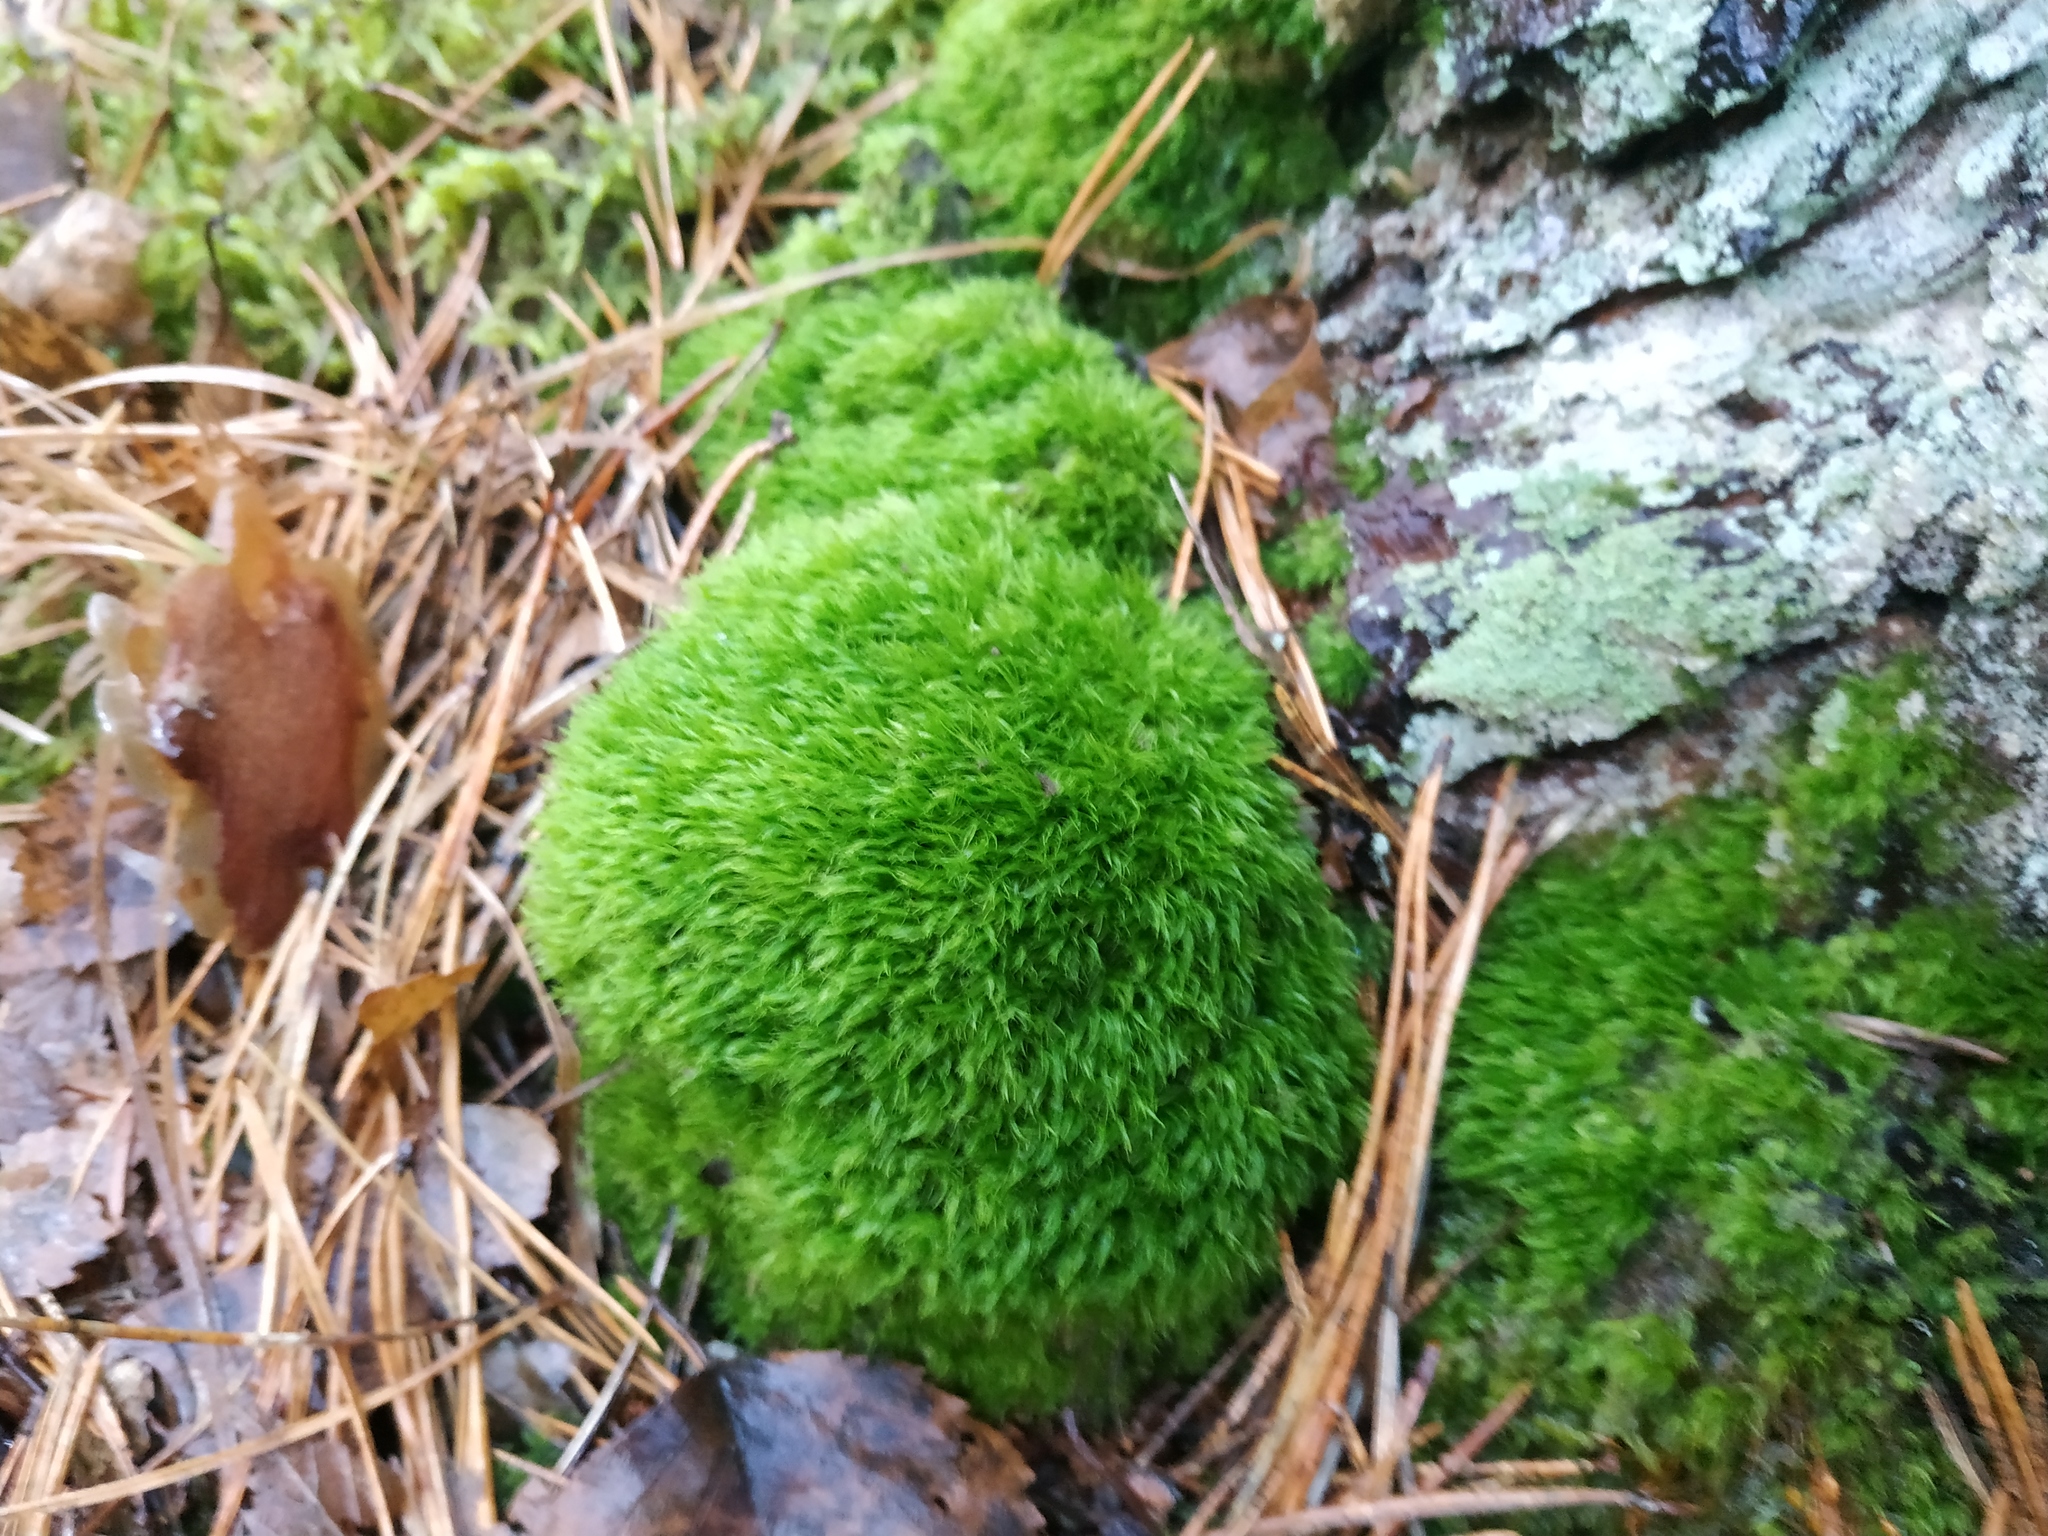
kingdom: Plantae
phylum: Bryophyta
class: Bryopsida
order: Dicranales
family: Dicranaceae
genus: Orthodicranum
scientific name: Orthodicranum montanum
